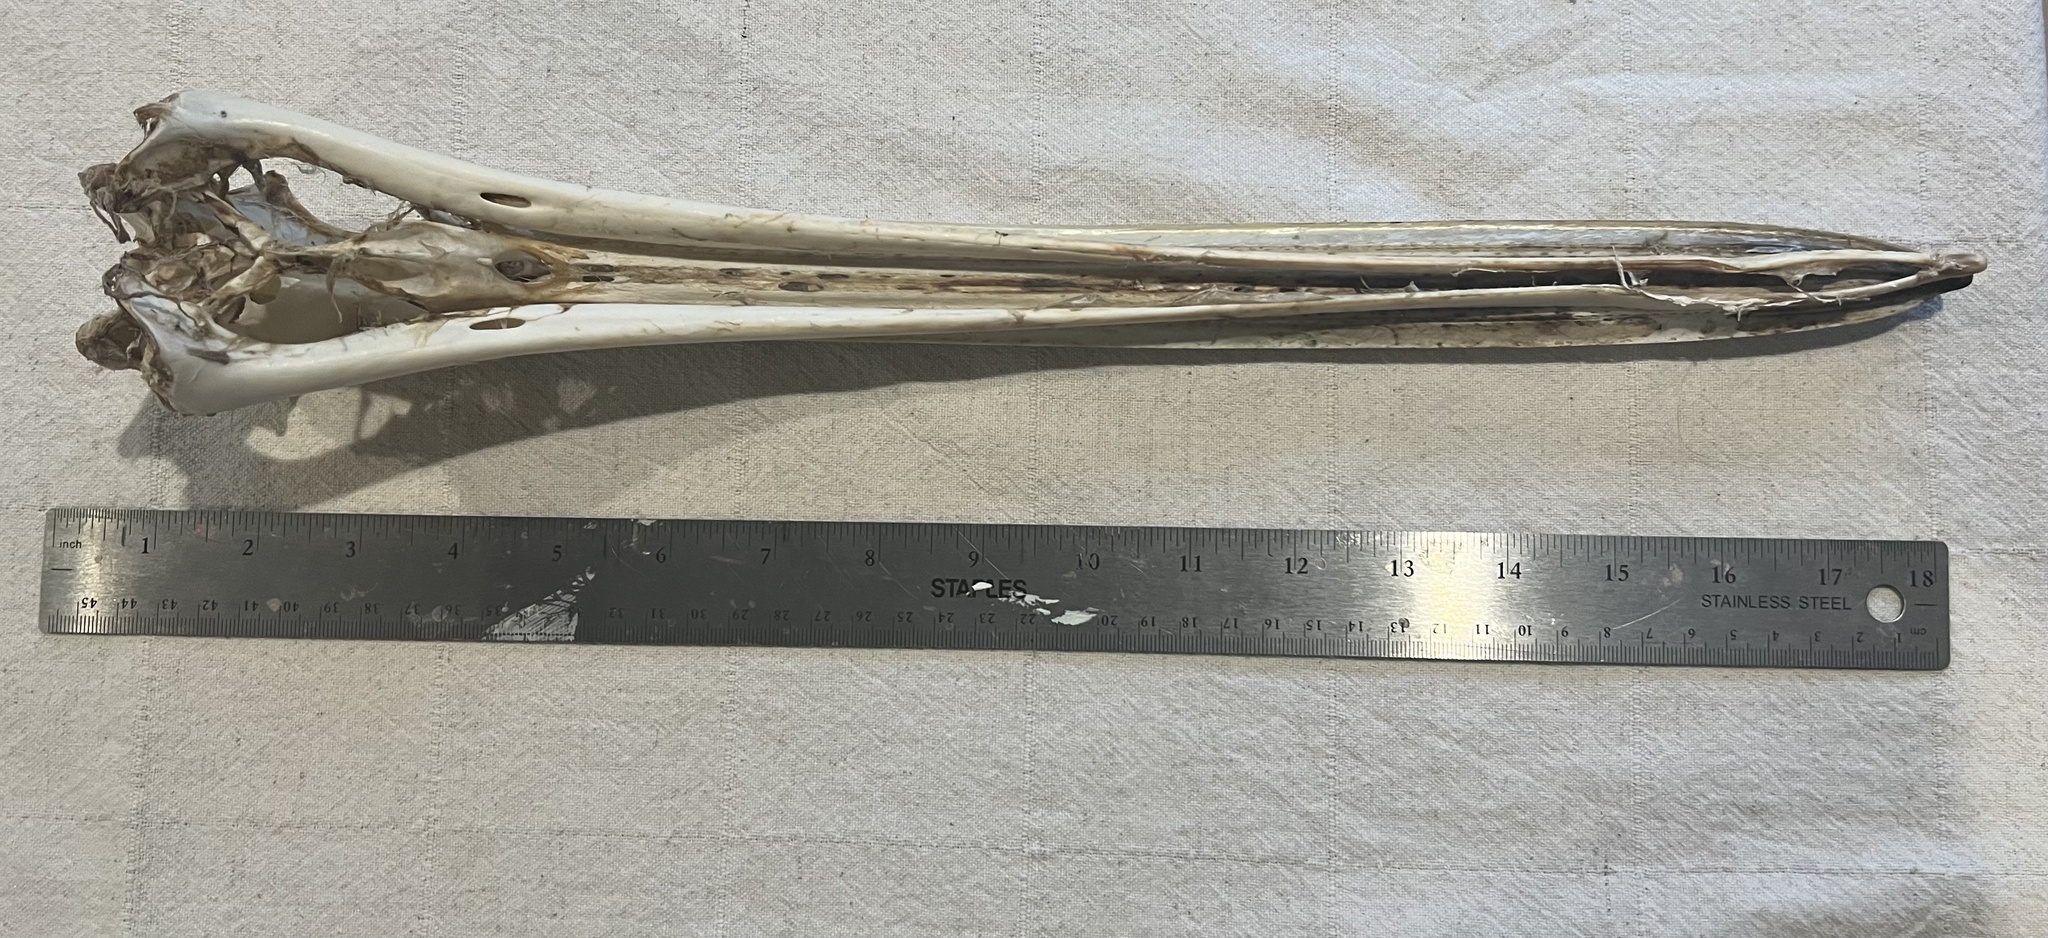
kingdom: Animalia
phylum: Chordata
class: Aves
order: Pelecaniformes
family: Pelecanidae
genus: Pelecanus
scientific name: Pelecanus erythrorhynchos
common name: American white pelican
